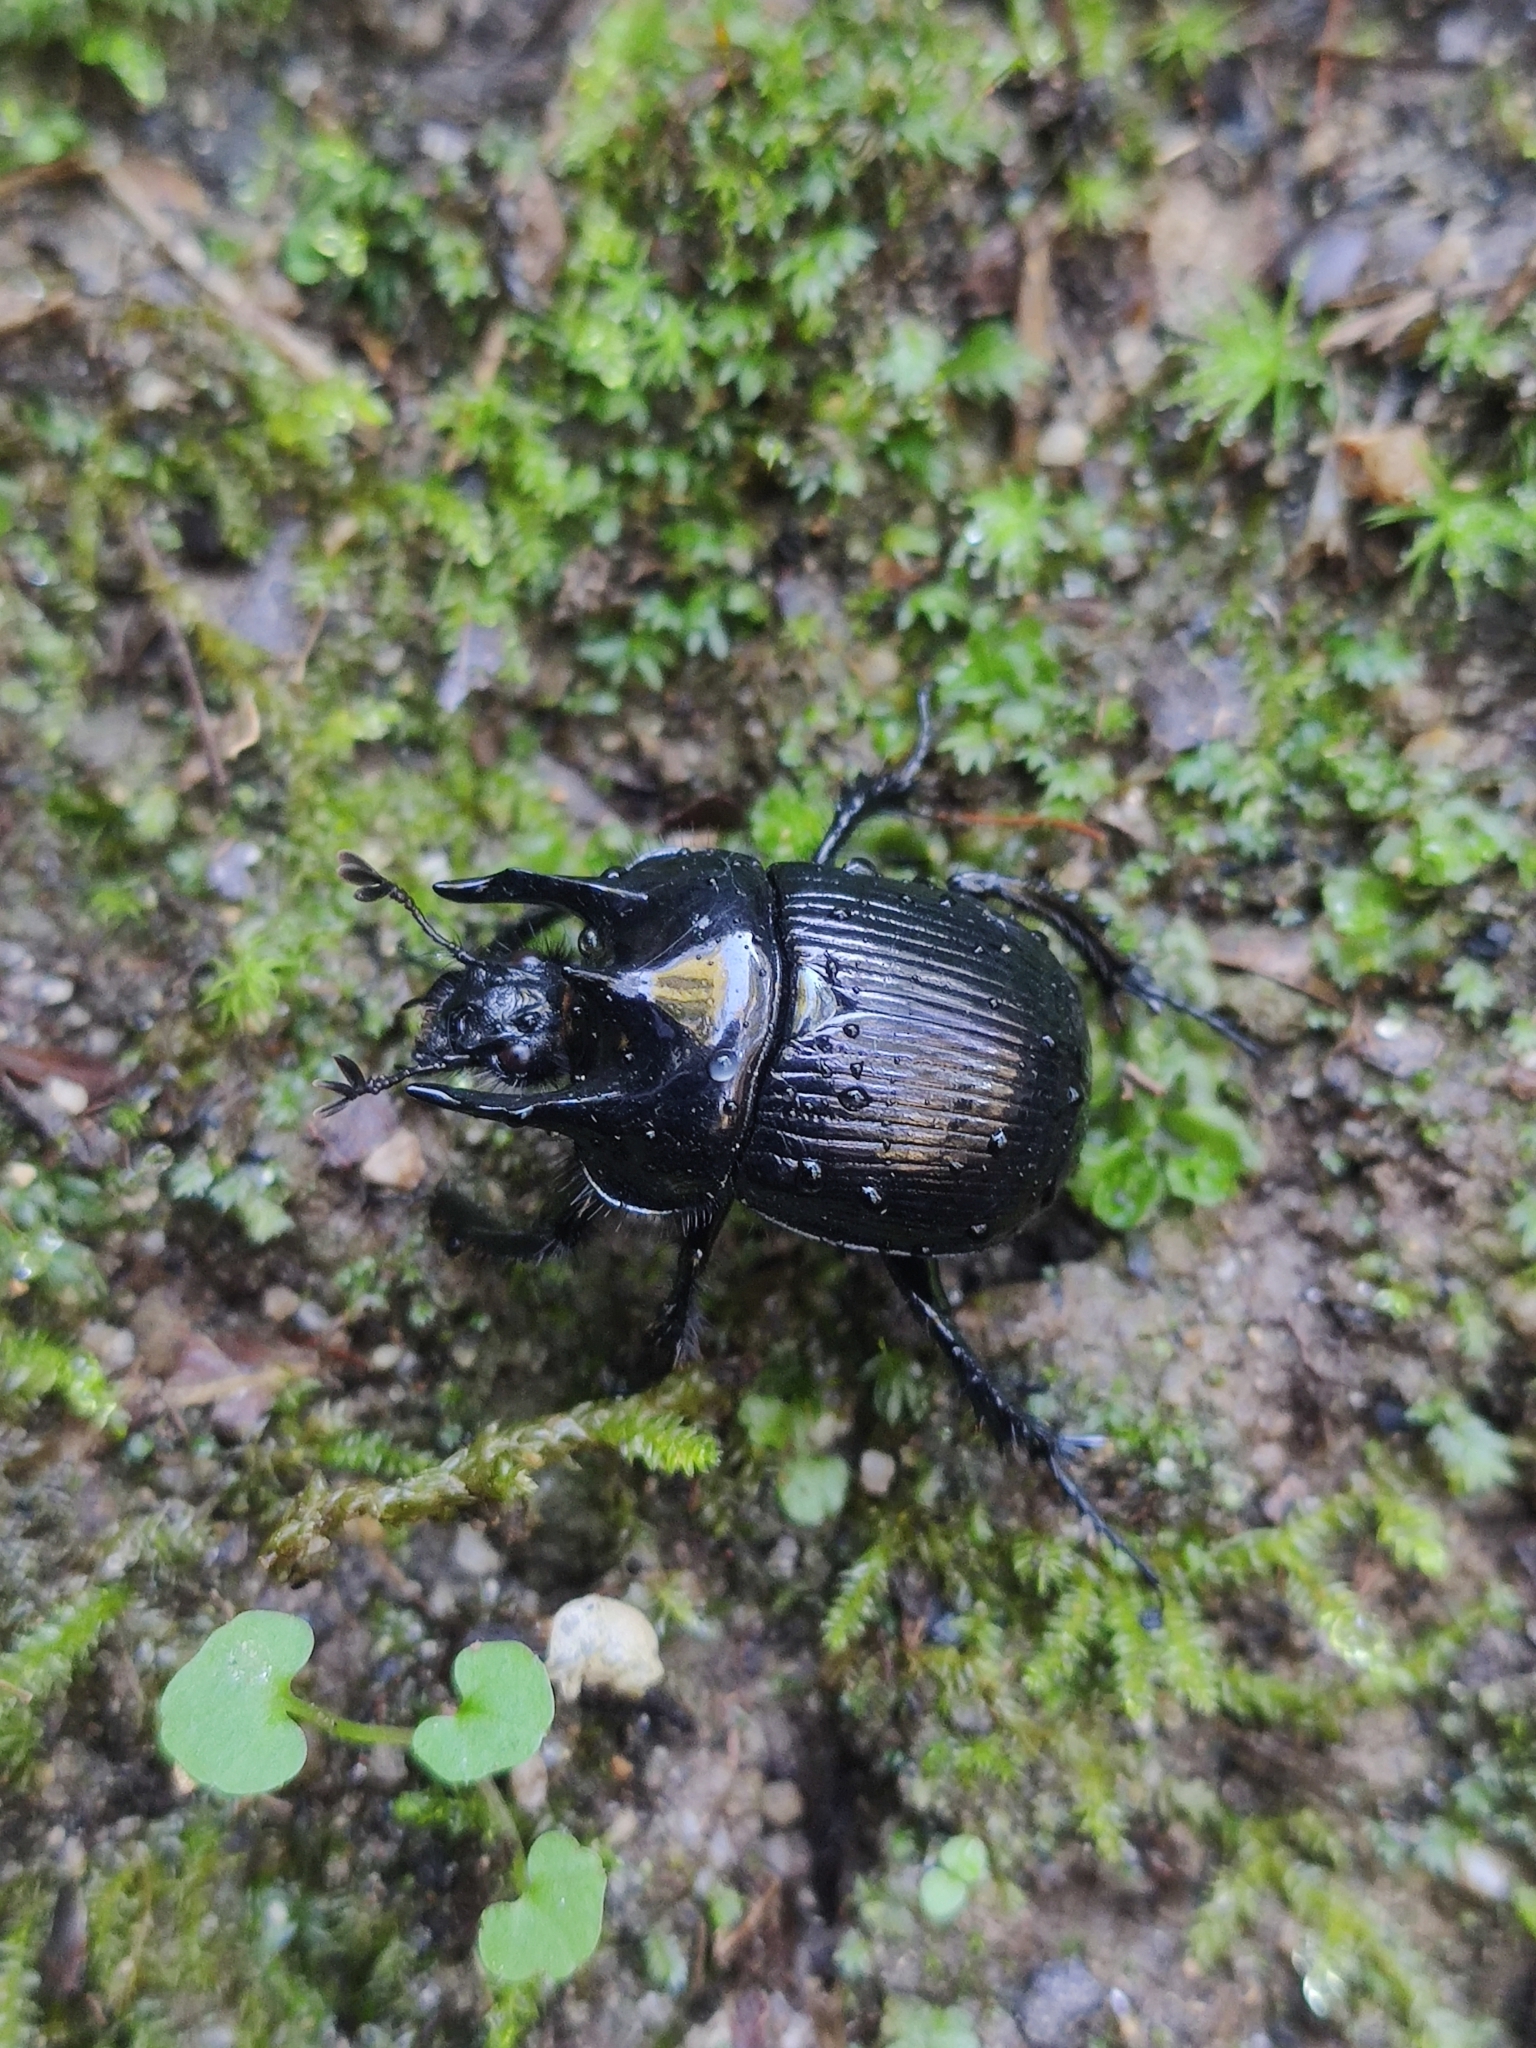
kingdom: Animalia
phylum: Arthropoda
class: Insecta
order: Coleoptera
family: Geotrupidae
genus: Typhaeus
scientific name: Typhaeus typhoeus
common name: Minotaur beetle
